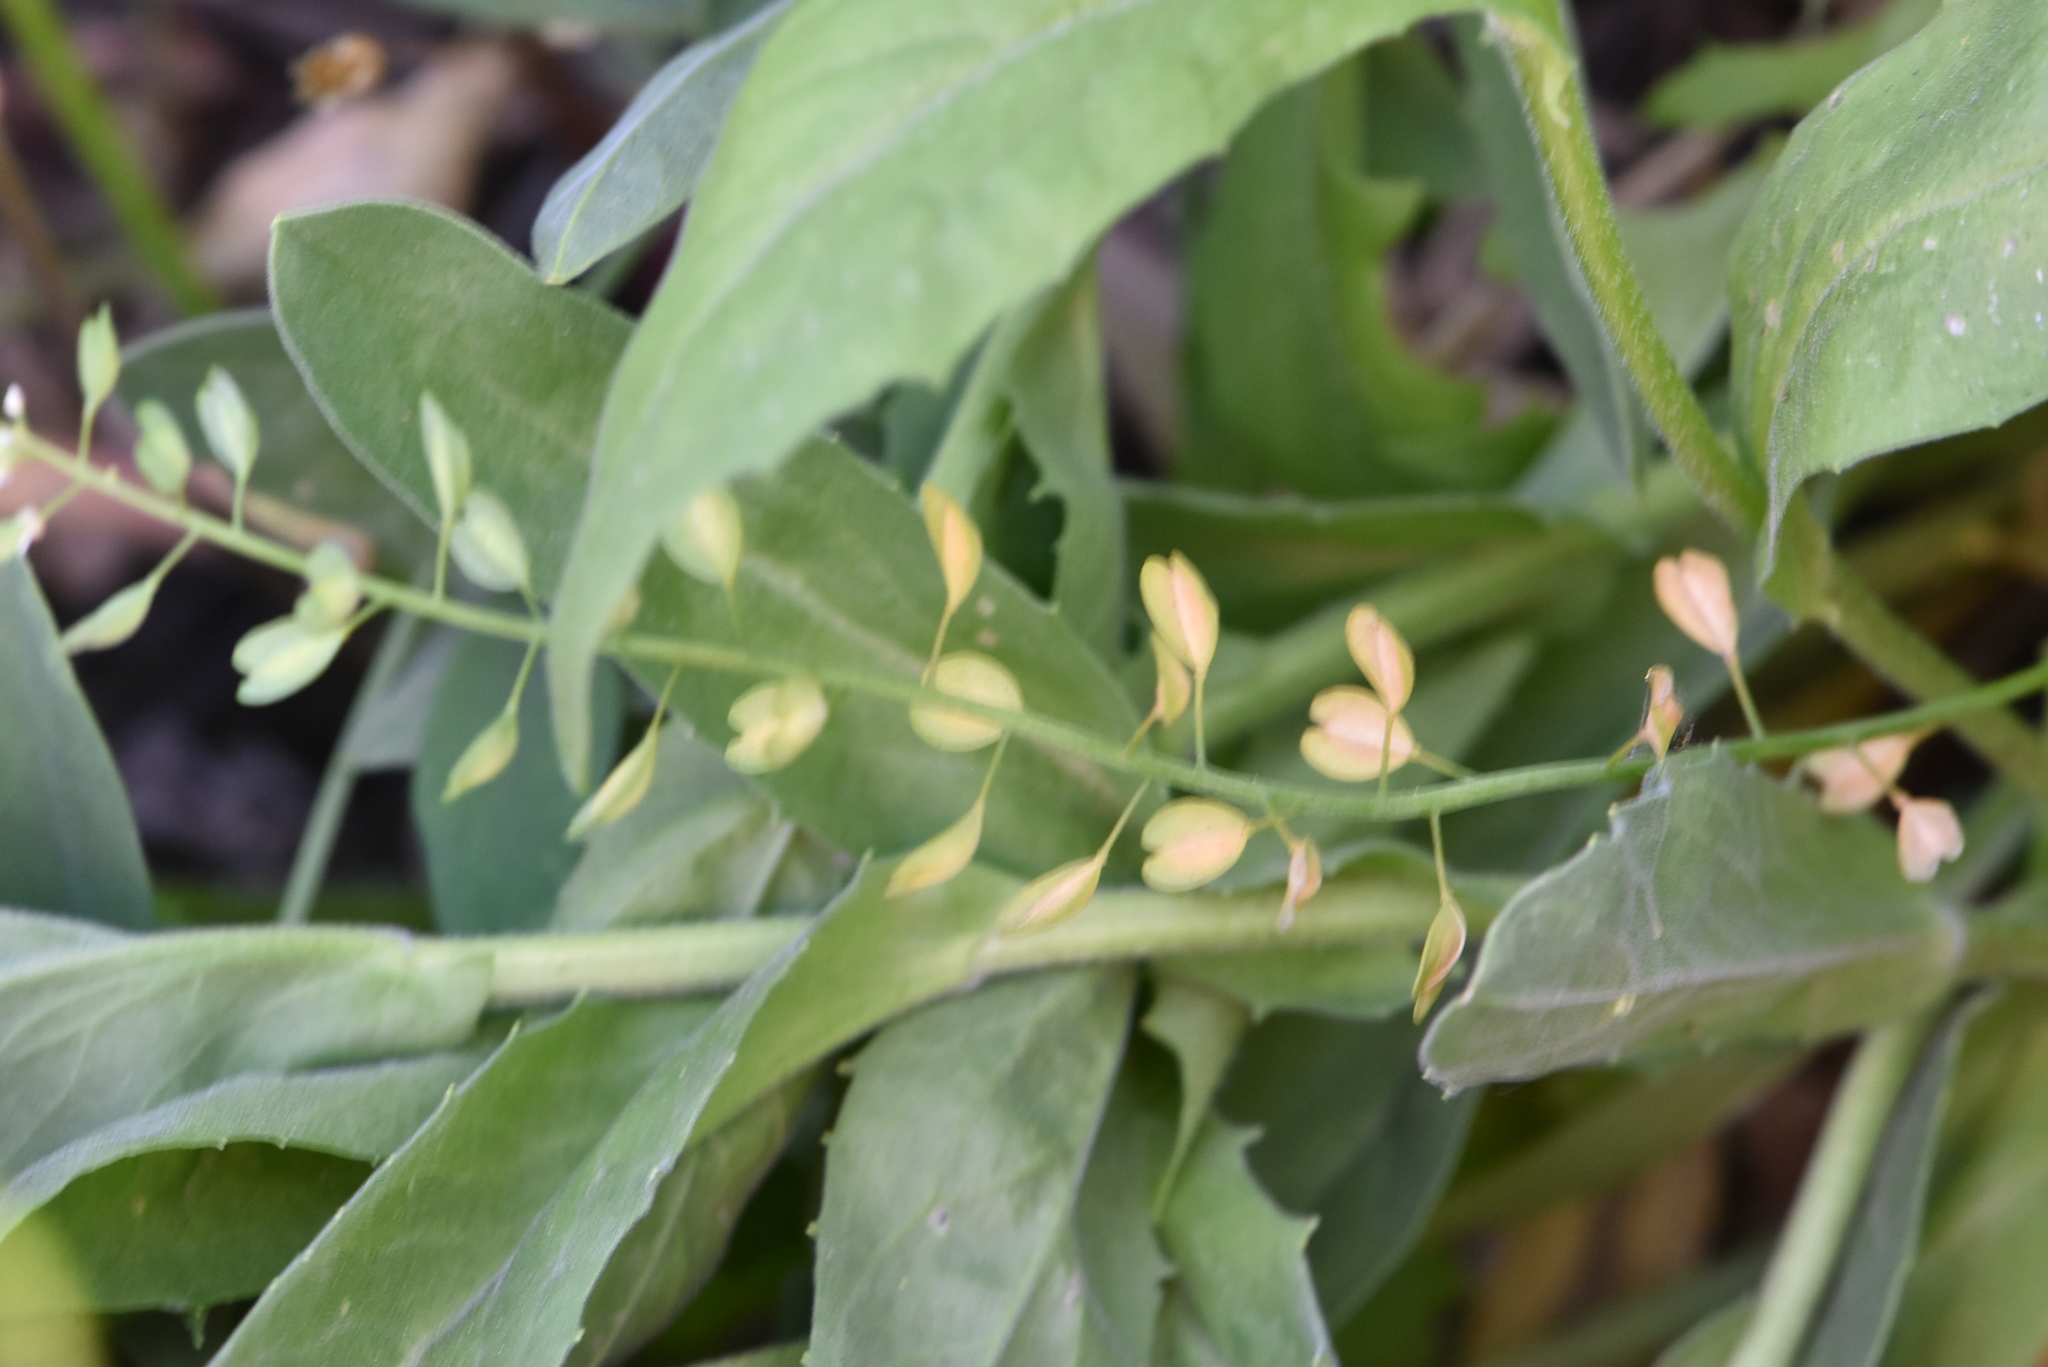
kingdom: Plantae
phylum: Tracheophyta
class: Magnoliopsida
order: Brassicales
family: Brassicaceae
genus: Noccaea
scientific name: Noccaea perfoliata
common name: Perfoliate pennycress
